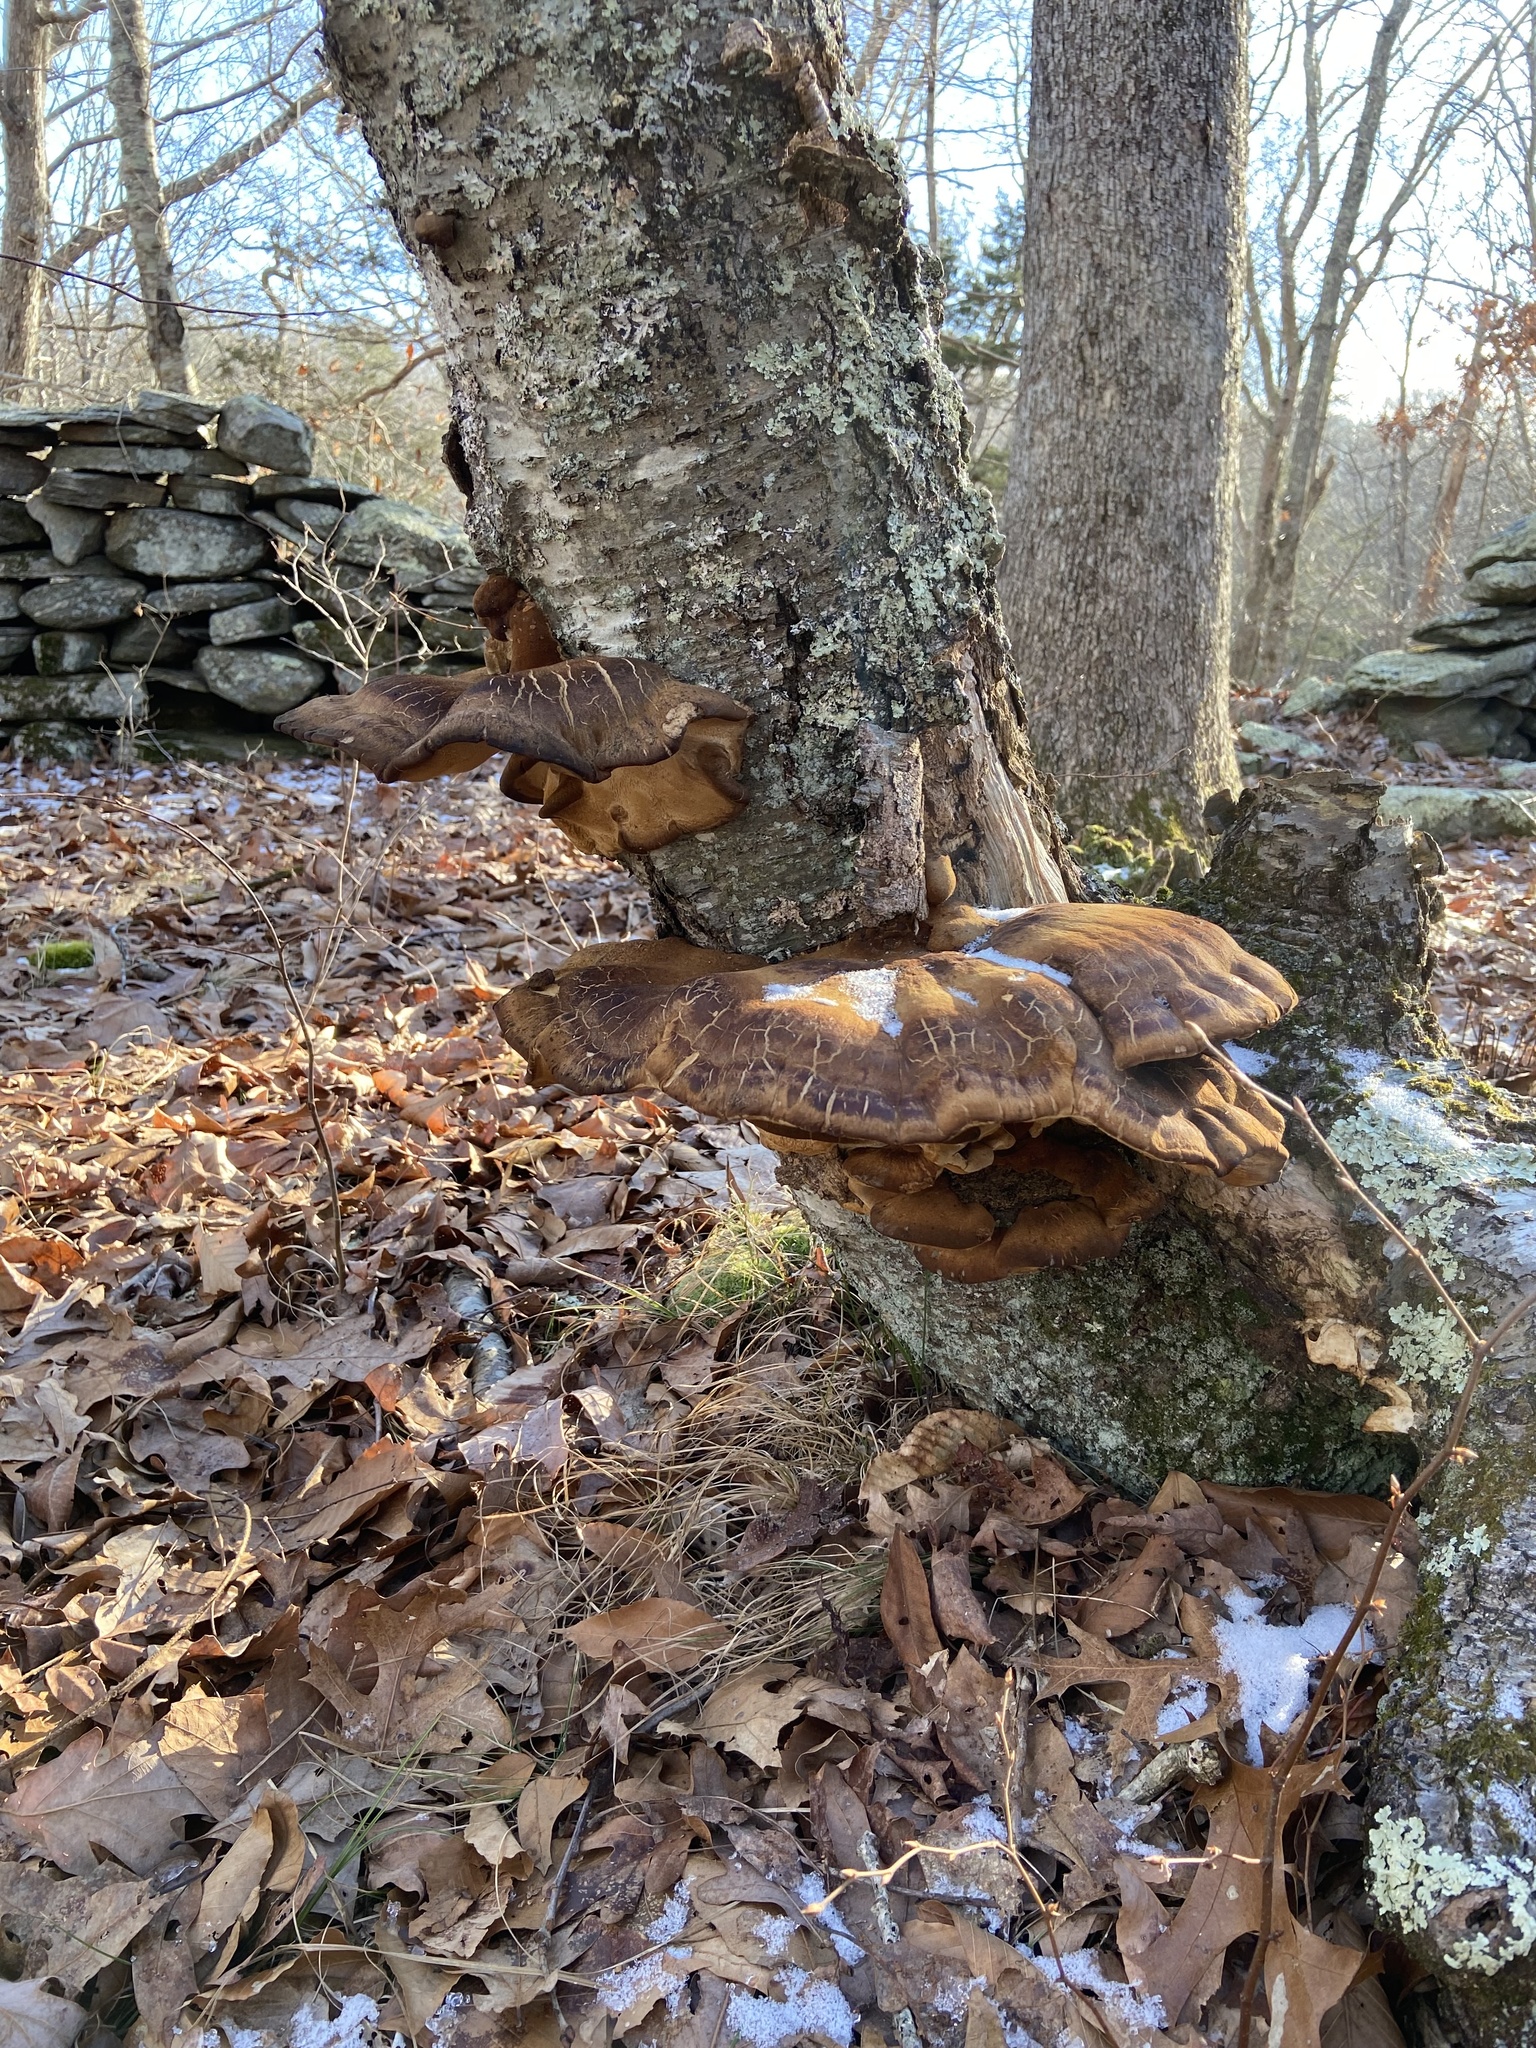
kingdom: Fungi
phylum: Basidiomycota
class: Agaricomycetes
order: Polyporales
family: Ischnodermataceae
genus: Ischnoderma
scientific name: Ischnoderma resinosum
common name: Resinous polypore
